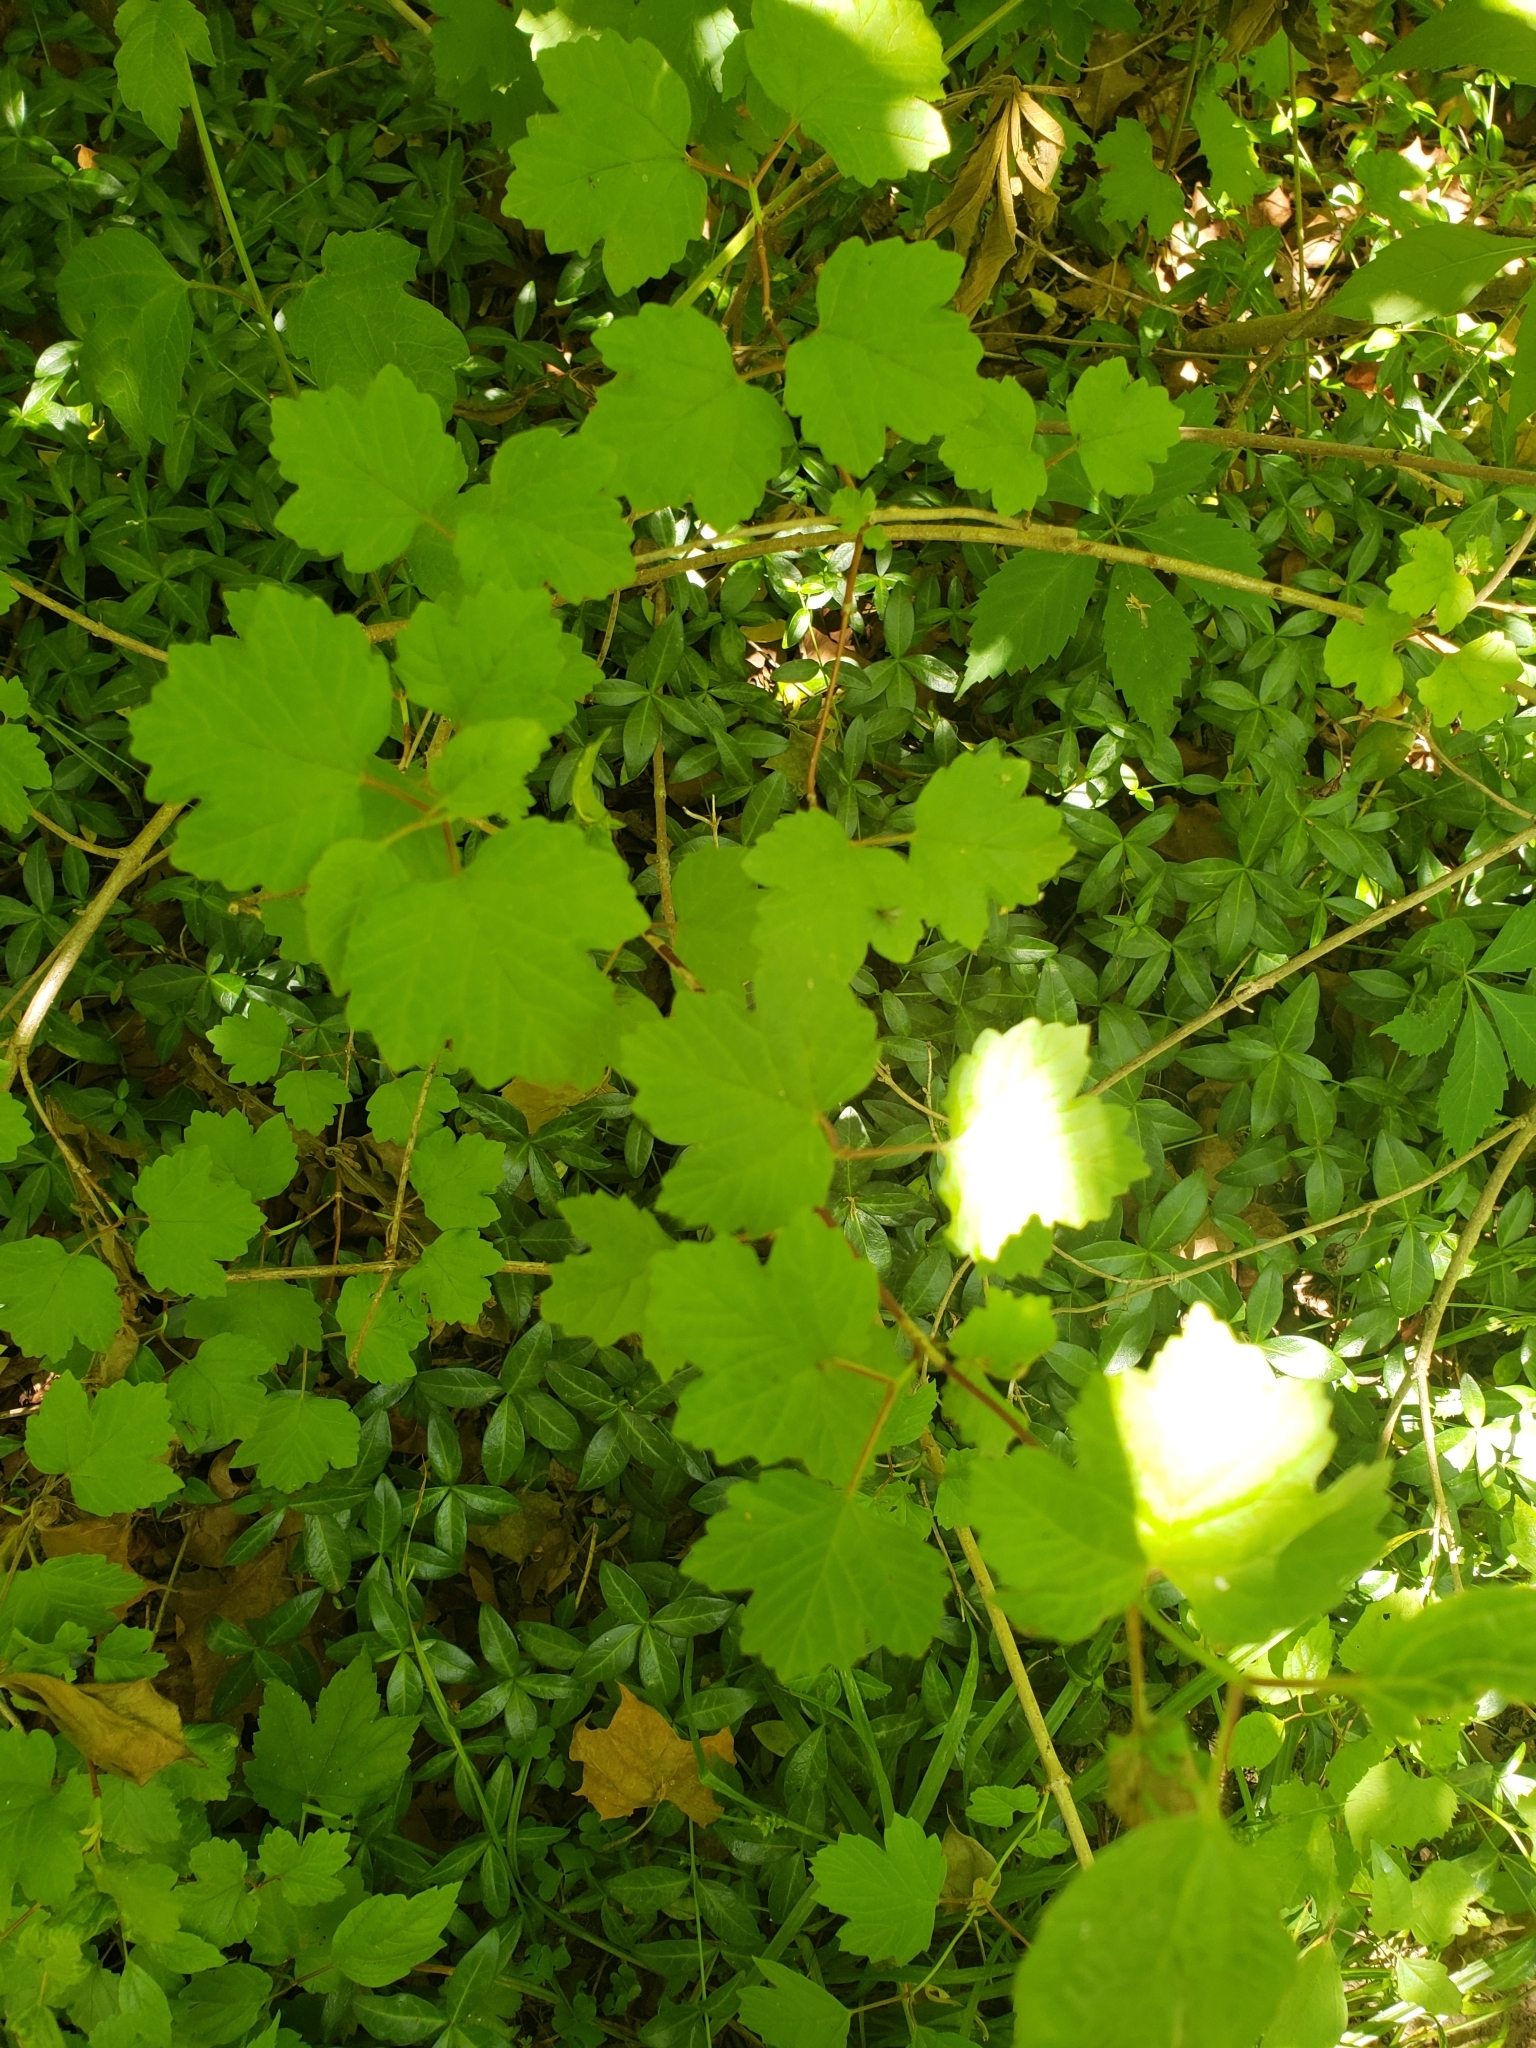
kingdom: Plantae
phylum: Tracheophyta
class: Magnoliopsida
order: Dipsacales
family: Viburnaceae
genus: Viburnum
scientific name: Viburnum opulus
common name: Guelder-rose
